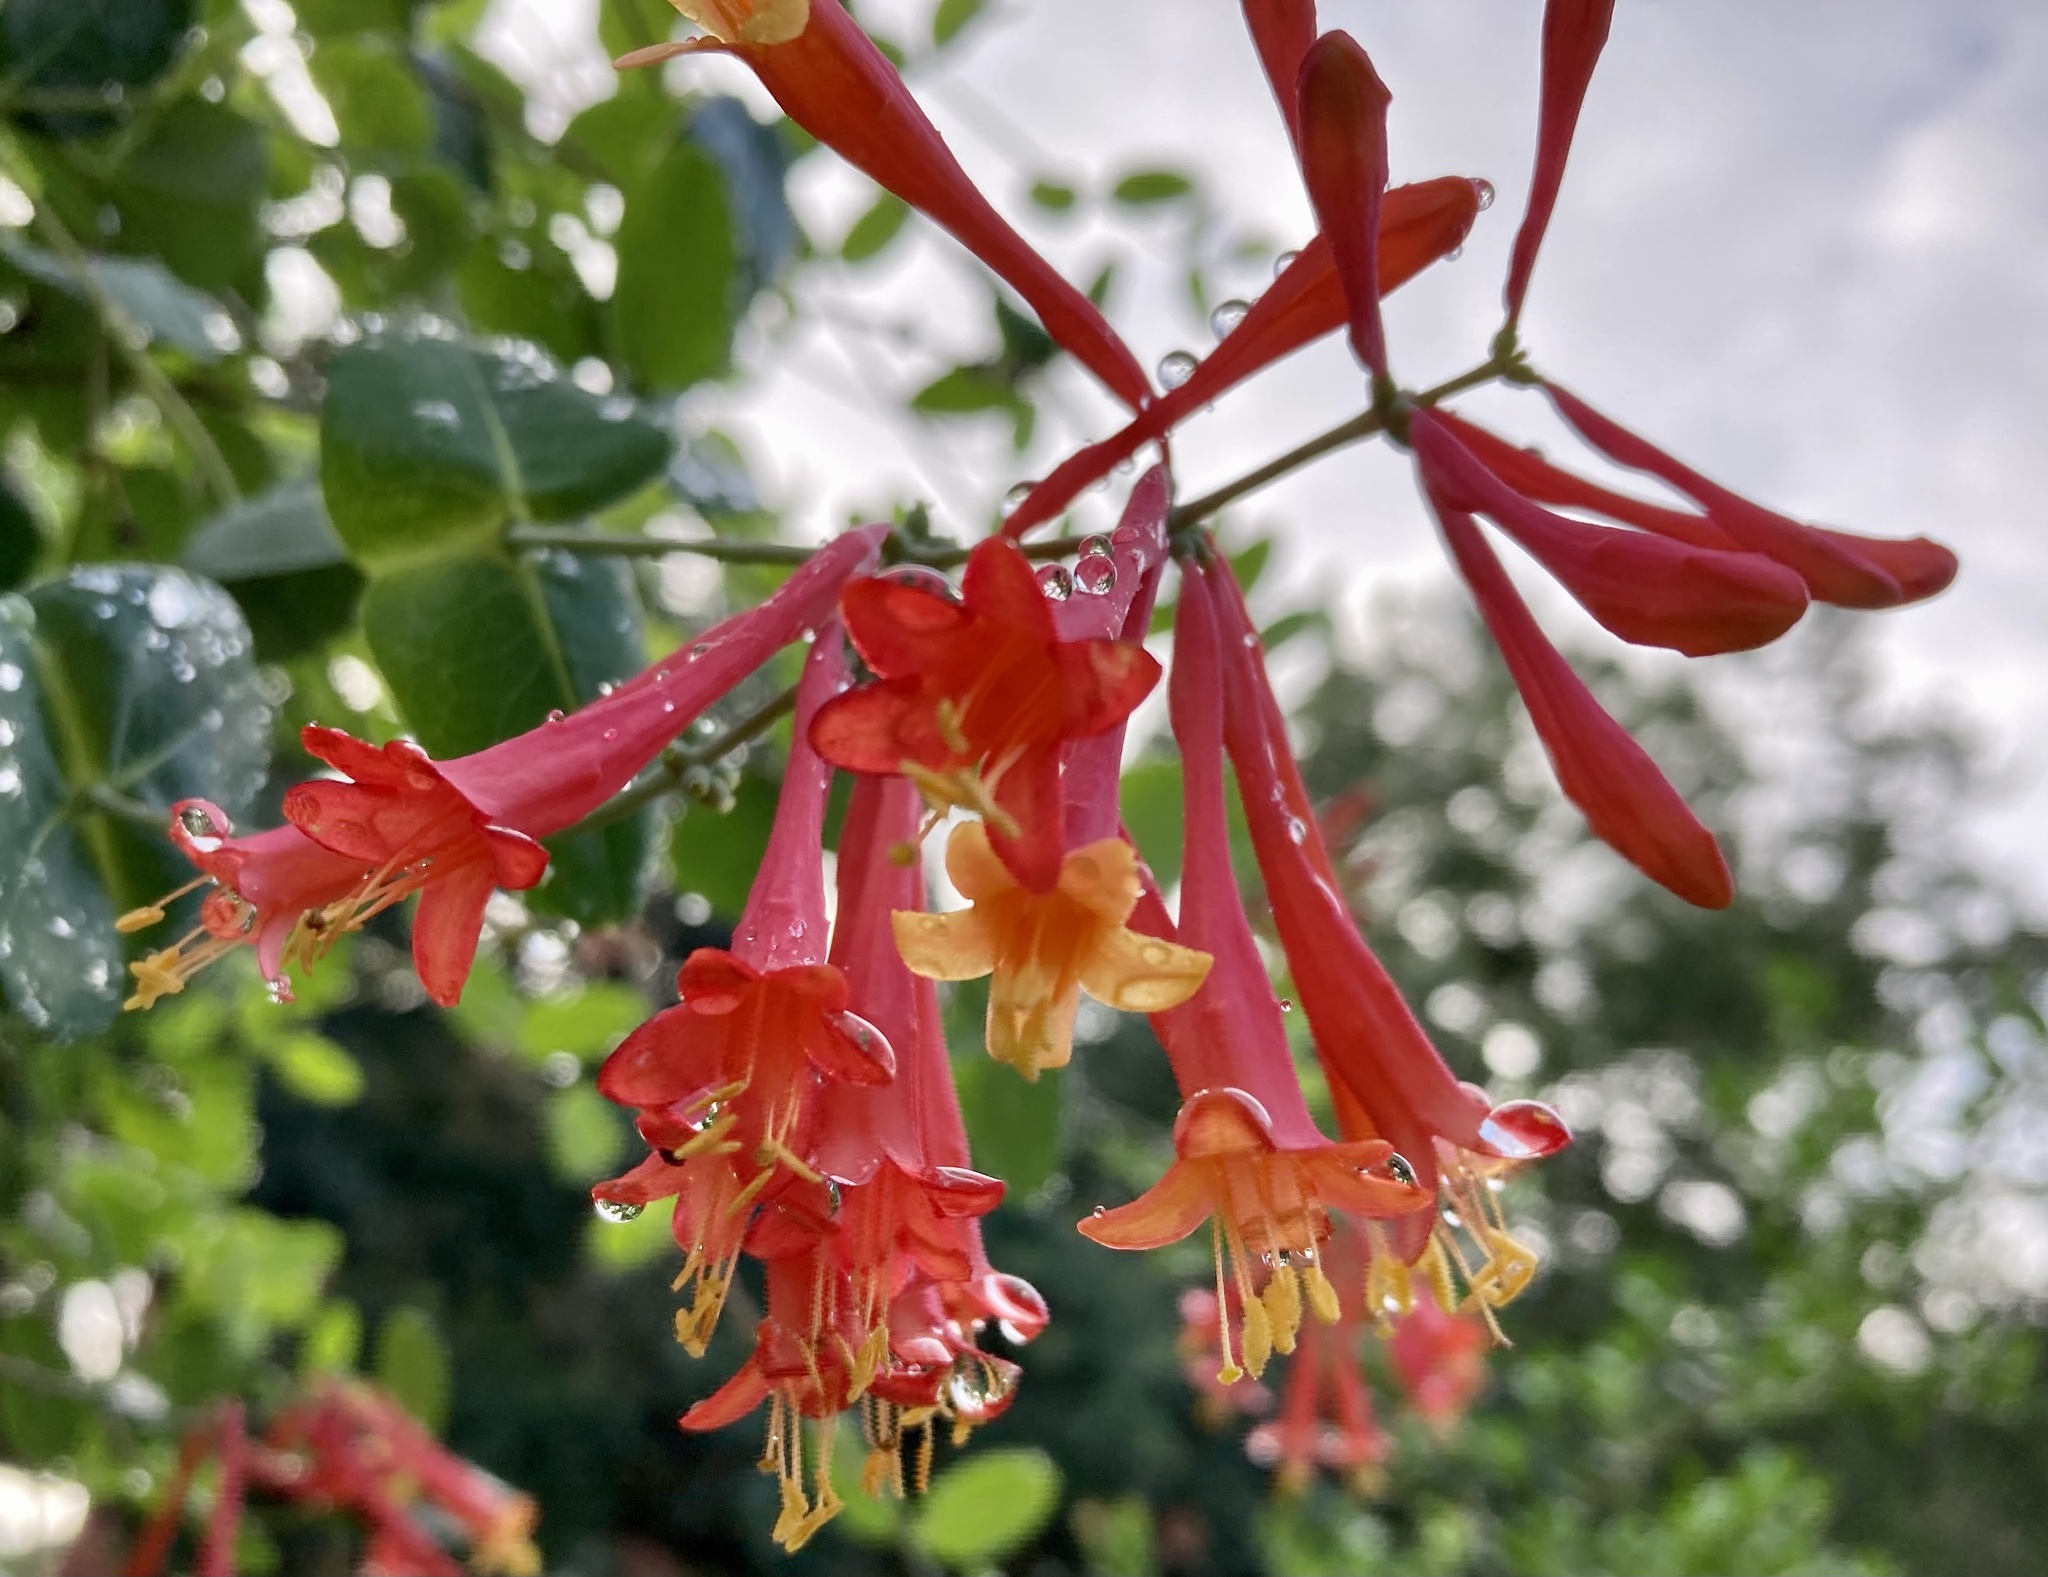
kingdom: Plantae
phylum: Tracheophyta
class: Magnoliopsida
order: Dipsacales
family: Caprifoliaceae
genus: Lonicera
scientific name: Lonicera sempervirens
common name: Coral honeysuckle
